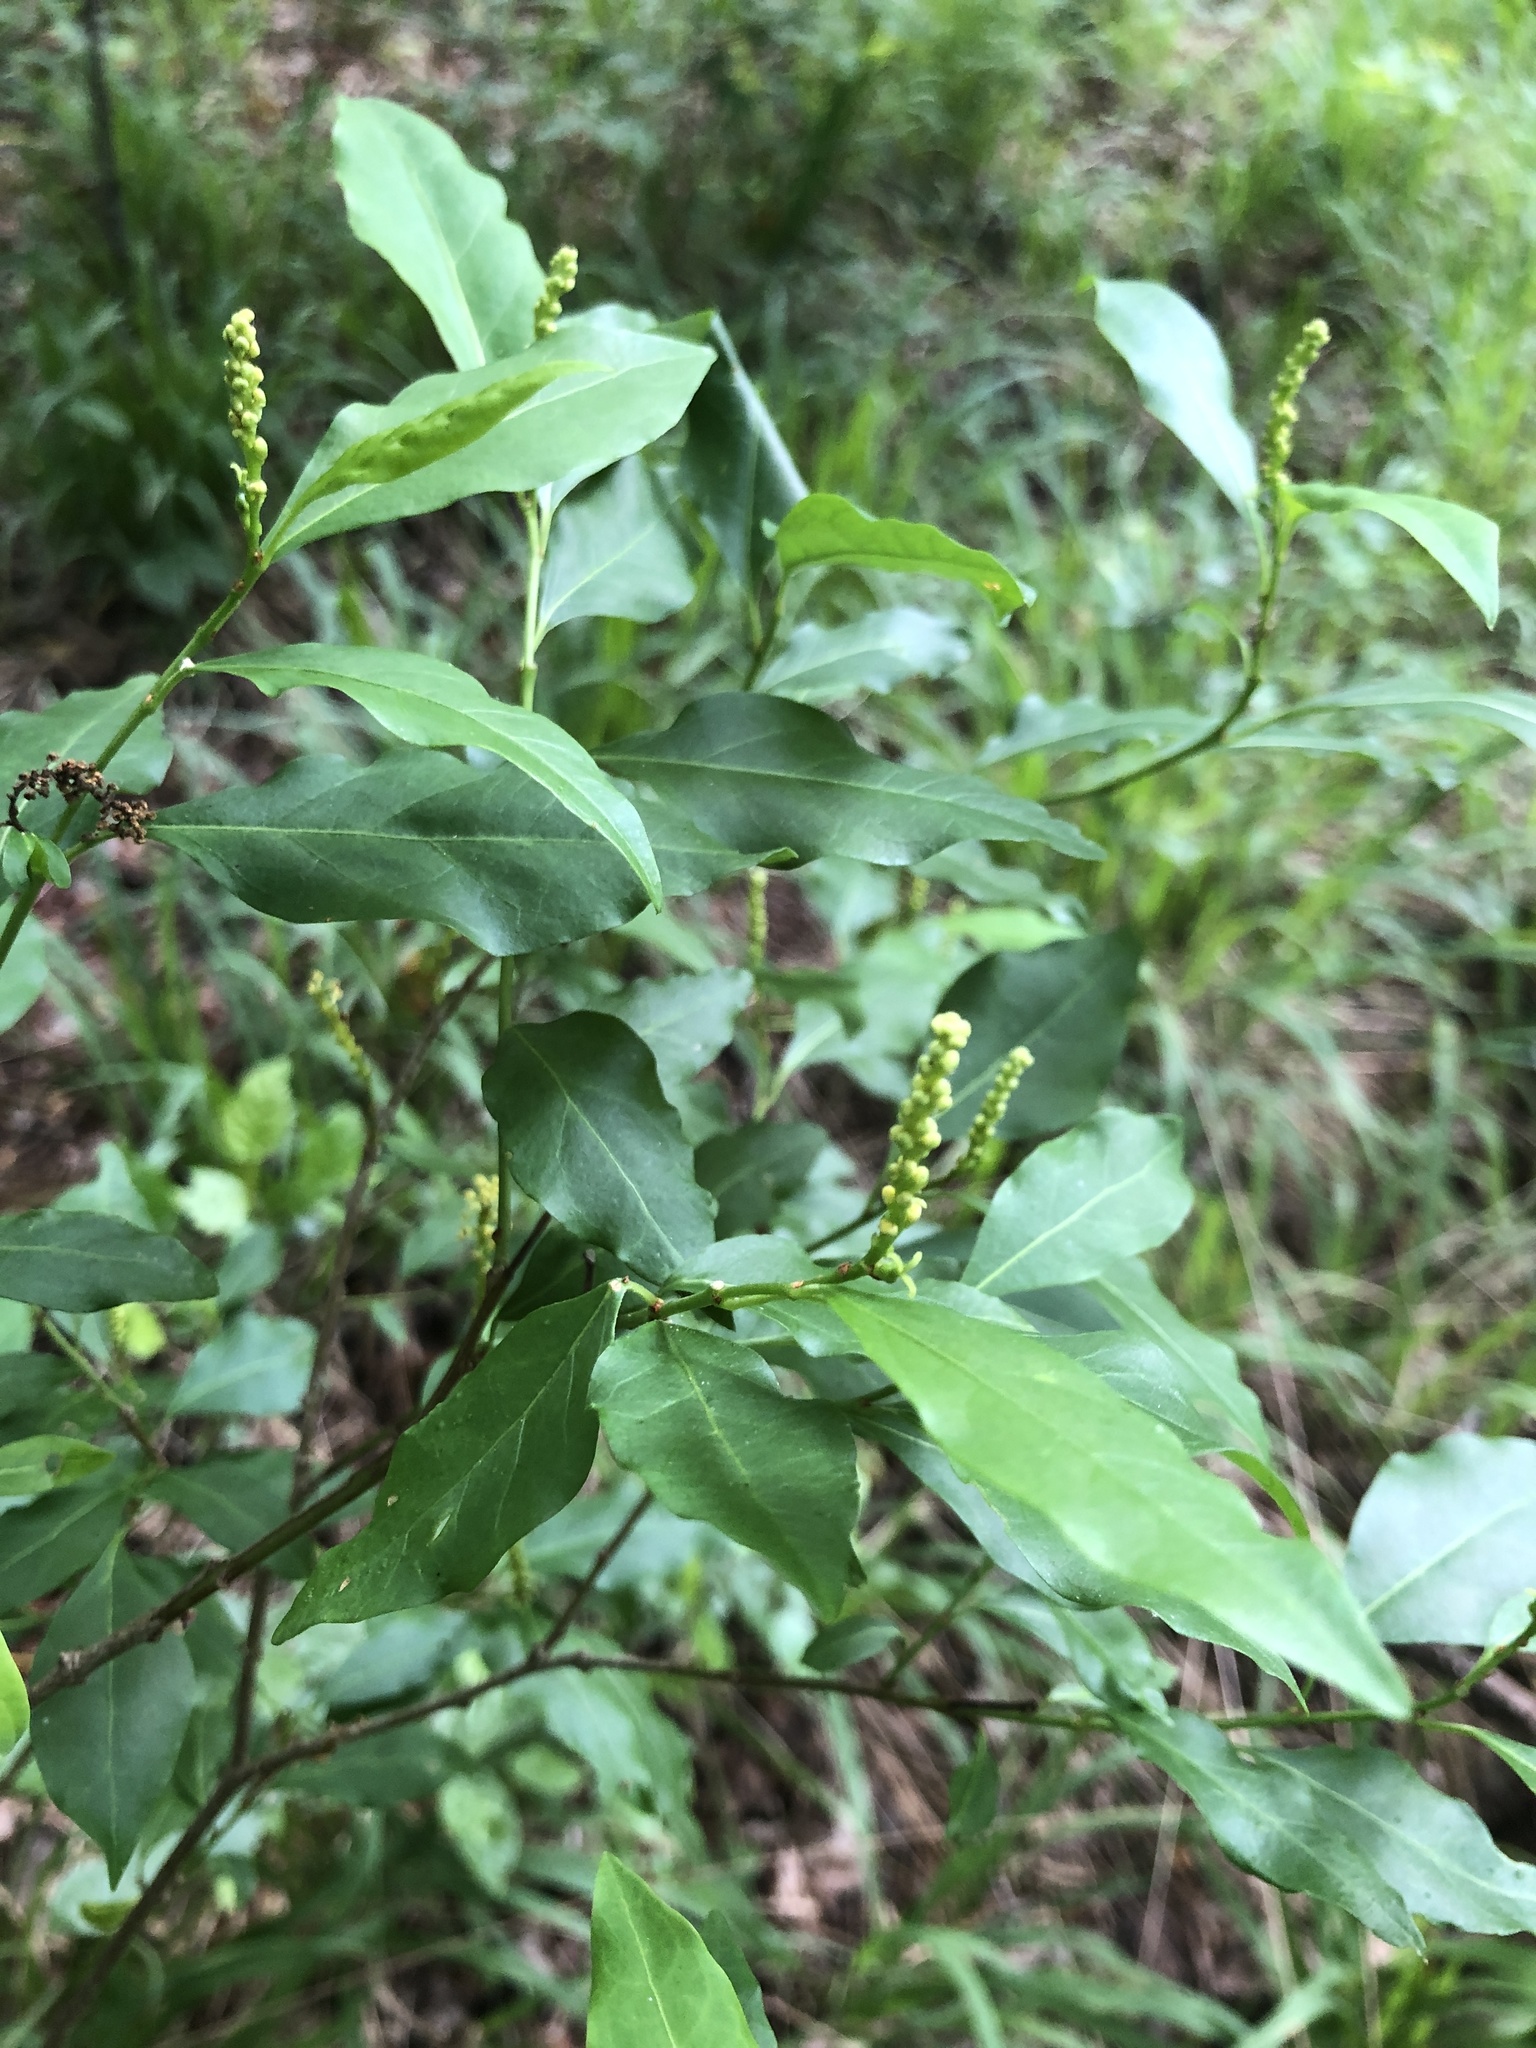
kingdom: Plantae
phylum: Tracheophyta
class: Magnoliopsida
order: Malpighiales
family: Euphorbiaceae
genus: Ditrysinia
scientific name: Ditrysinia fruticosa
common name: Gulf sebastian-bush
